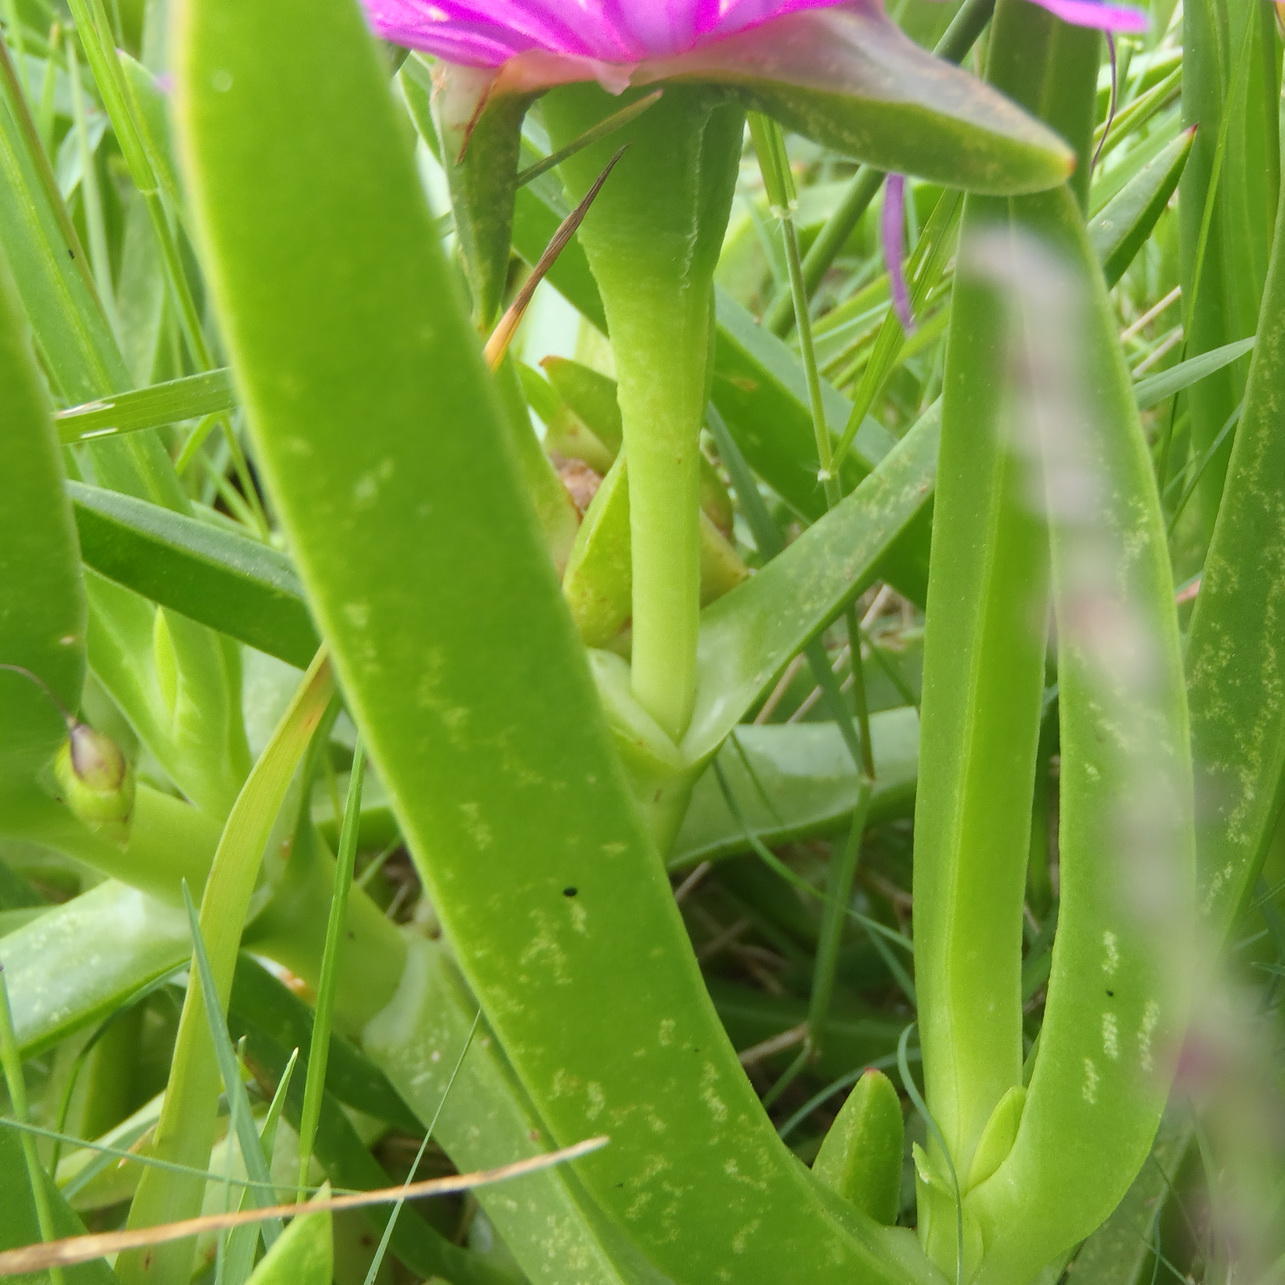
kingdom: Plantae
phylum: Tracheophyta
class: Magnoliopsida
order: Caryophyllales
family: Aizoaceae
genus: Carpobrotus
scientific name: Carpobrotus deliciosus
